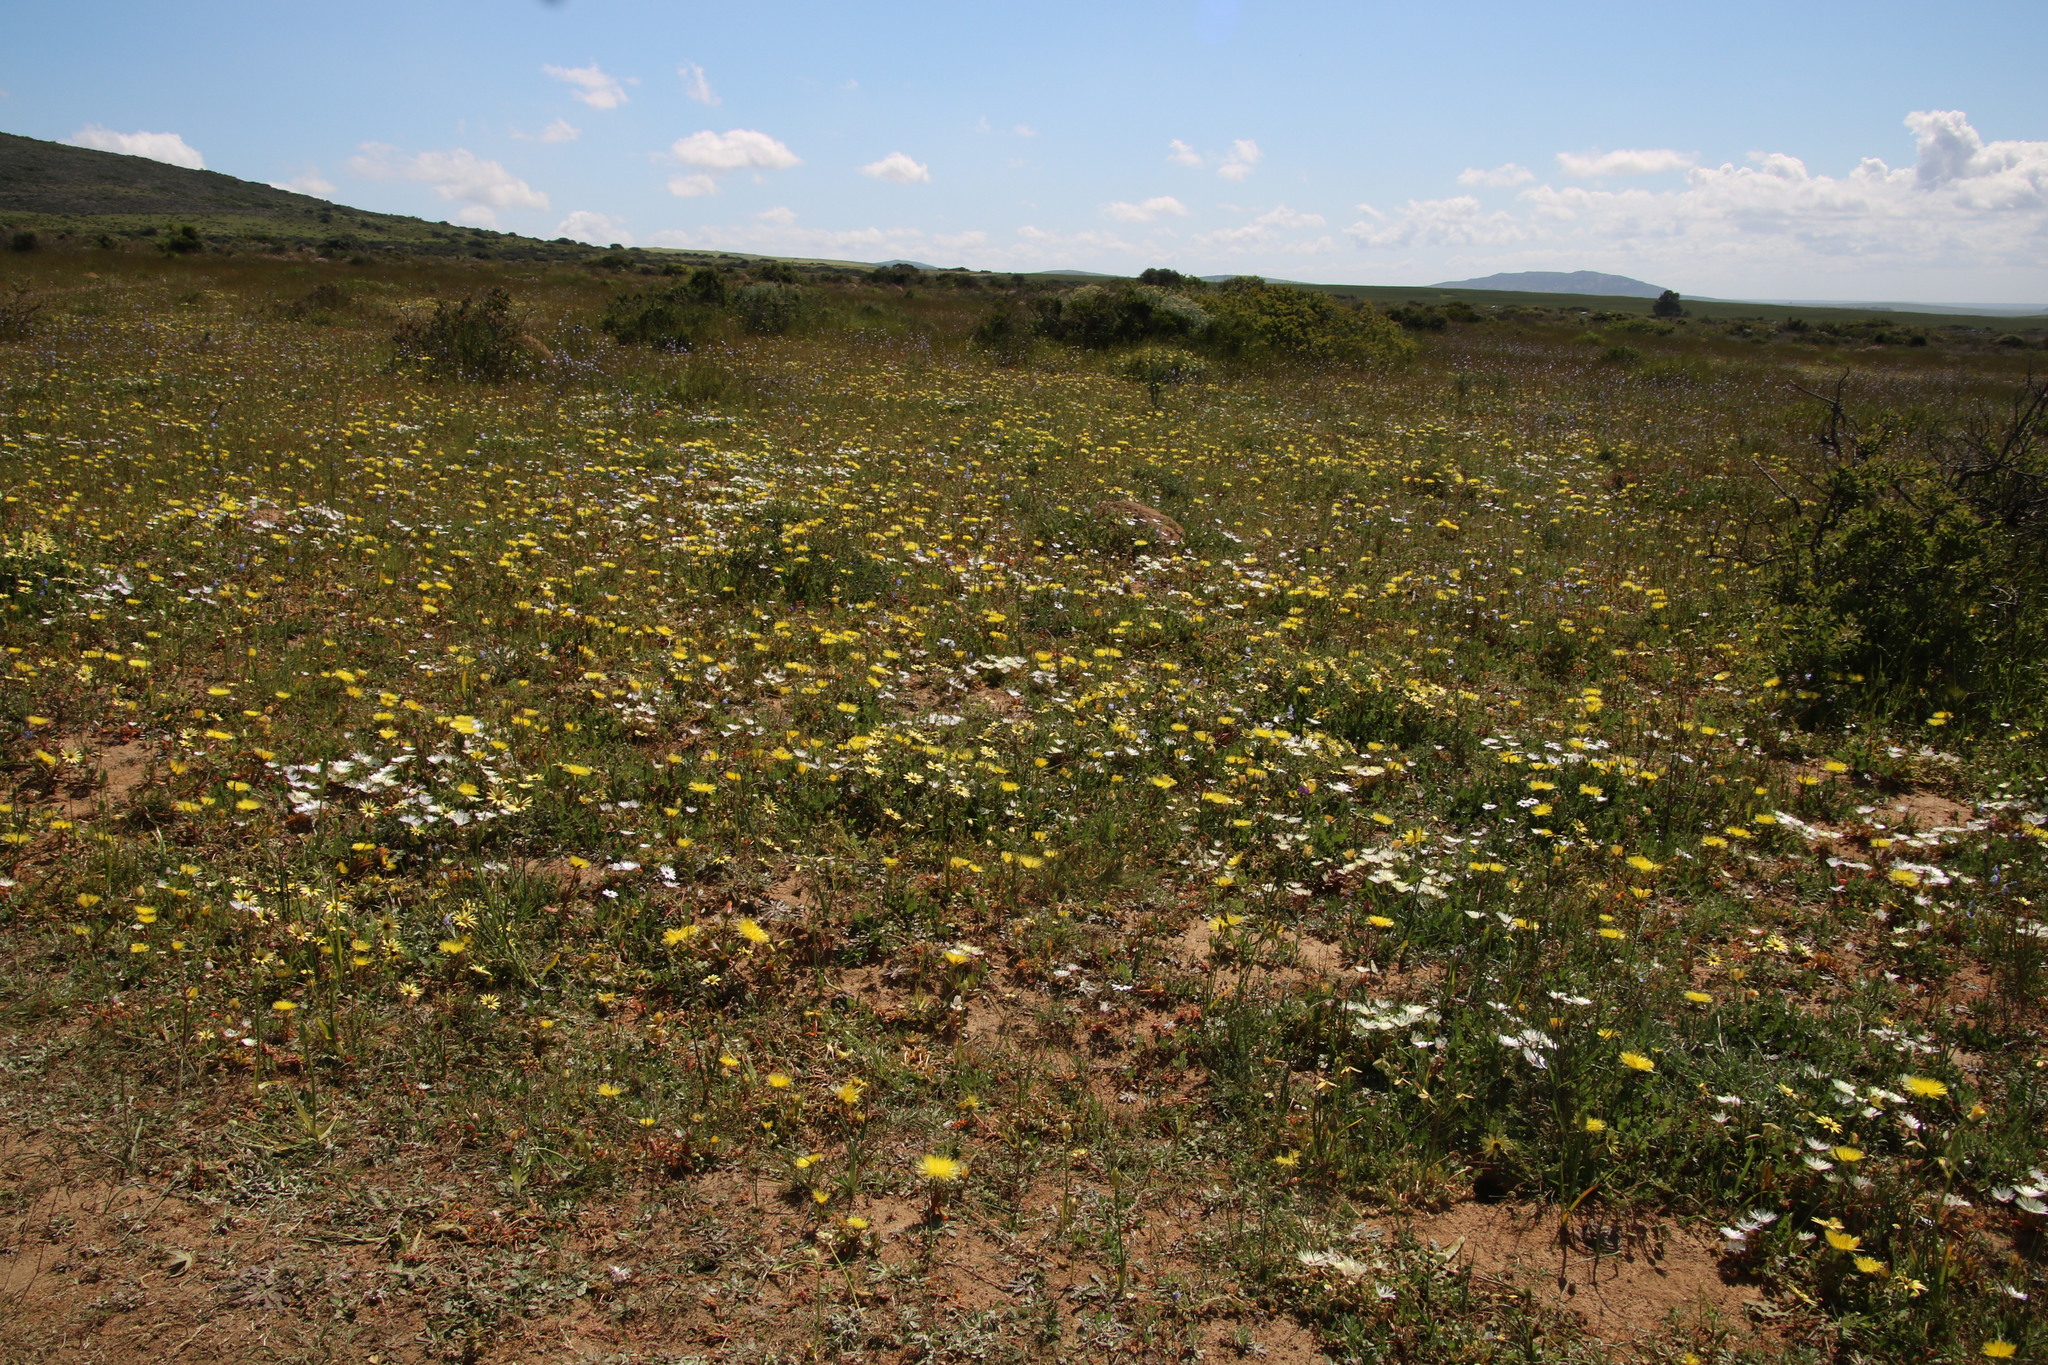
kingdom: Plantae
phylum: Tracheophyta
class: Magnoliopsida
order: Caryophyllales
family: Aizoaceae
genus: Cleretum
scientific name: Cleretum bellidiforme
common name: Livingstone daisy
